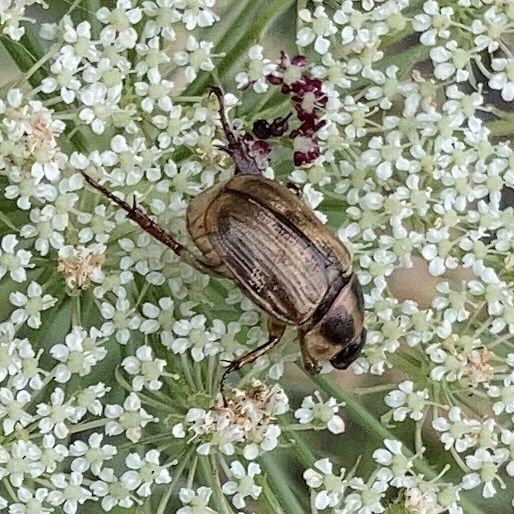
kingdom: Animalia
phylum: Arthropoda
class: Insecta
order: Coleoptera
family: Scarabaeidae
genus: Exomala
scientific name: Exomala orientalis
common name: Oriental beetle
